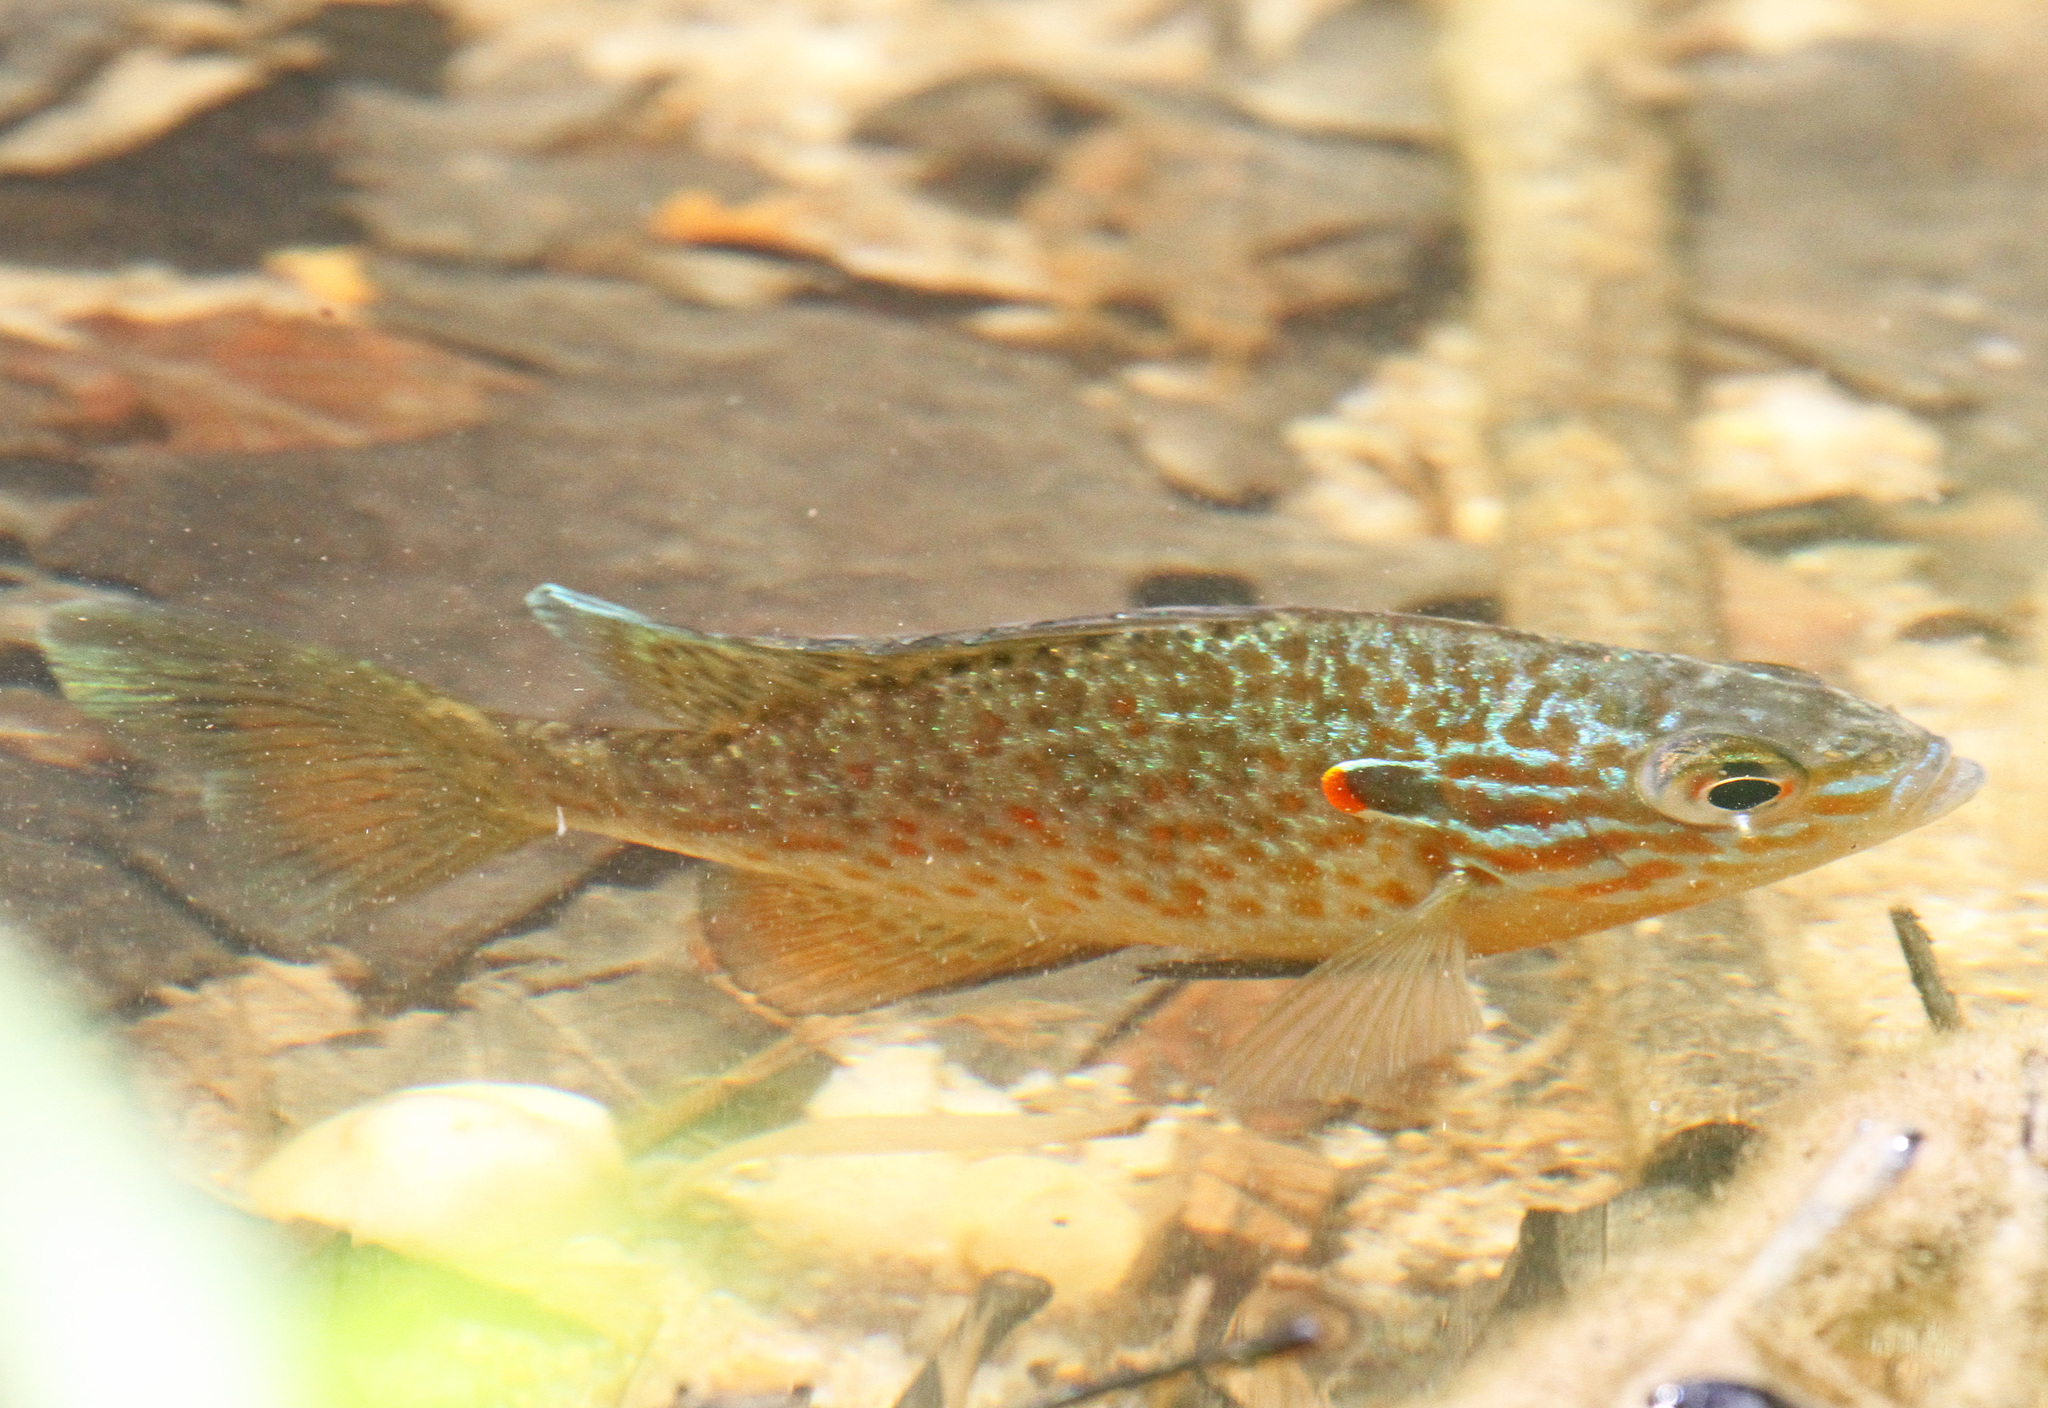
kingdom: Animalia
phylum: Chordata
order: Perciformes
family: Centrarchidae
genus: Lepomis
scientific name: Lepomis gibbosus
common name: Pumpkinseed
